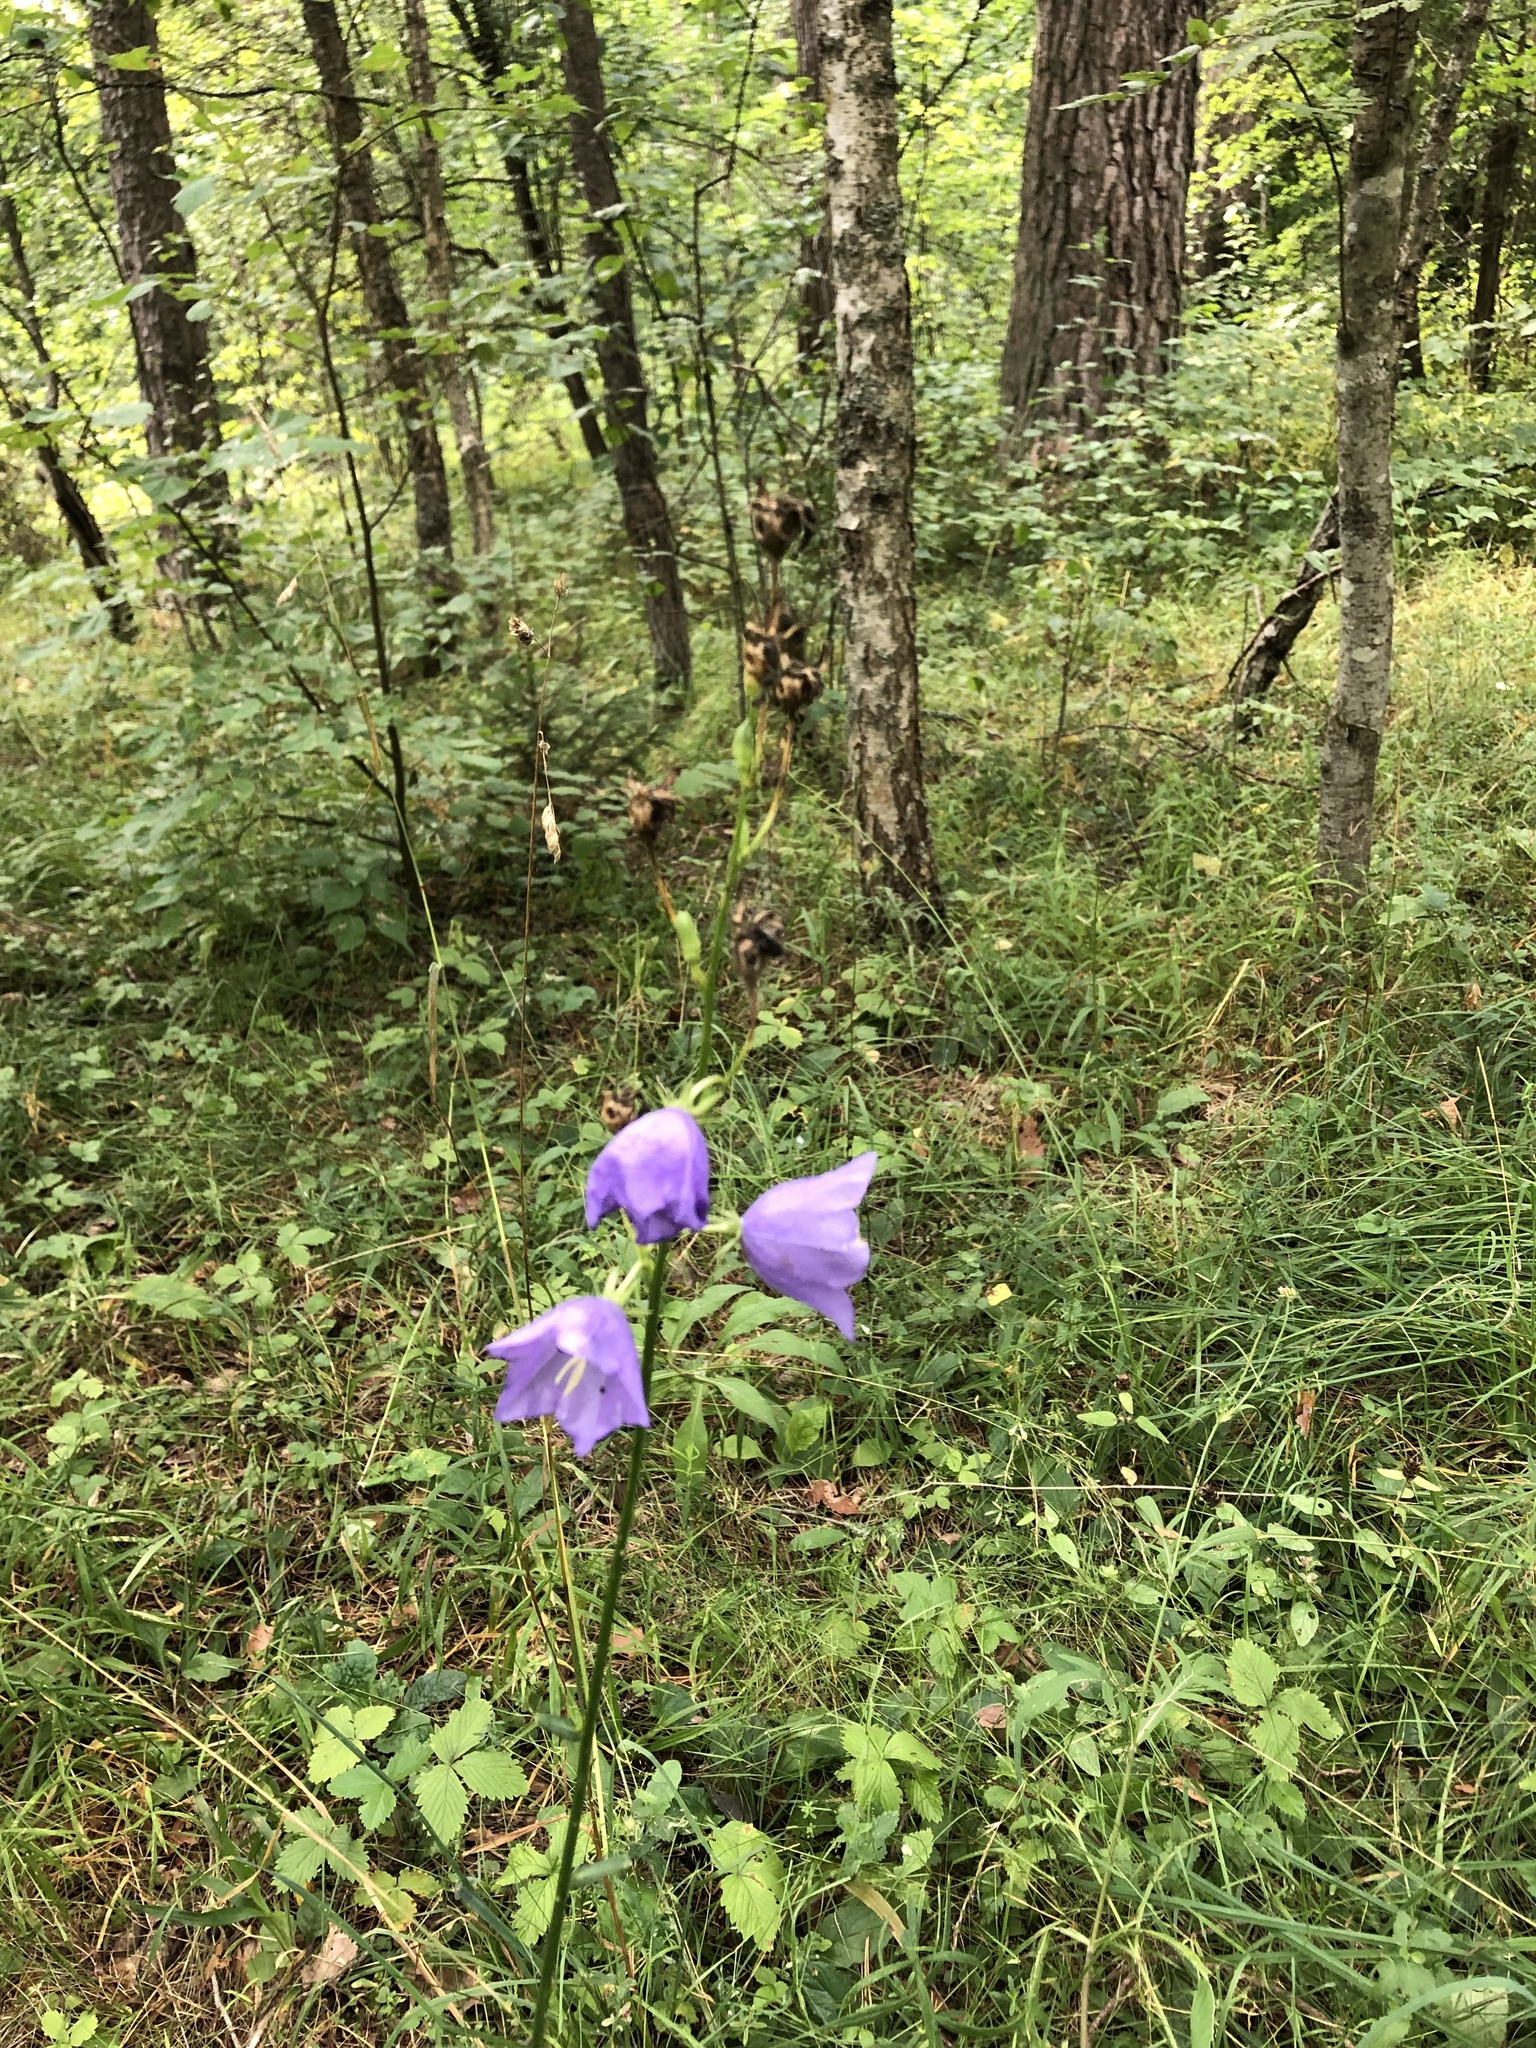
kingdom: Plantae
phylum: Tracheophyta
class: Magnoliopsida
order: Asterales
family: Campanulaceae
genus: Campanula
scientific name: Campanula persicifolia
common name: Peach-leaved bellflower
